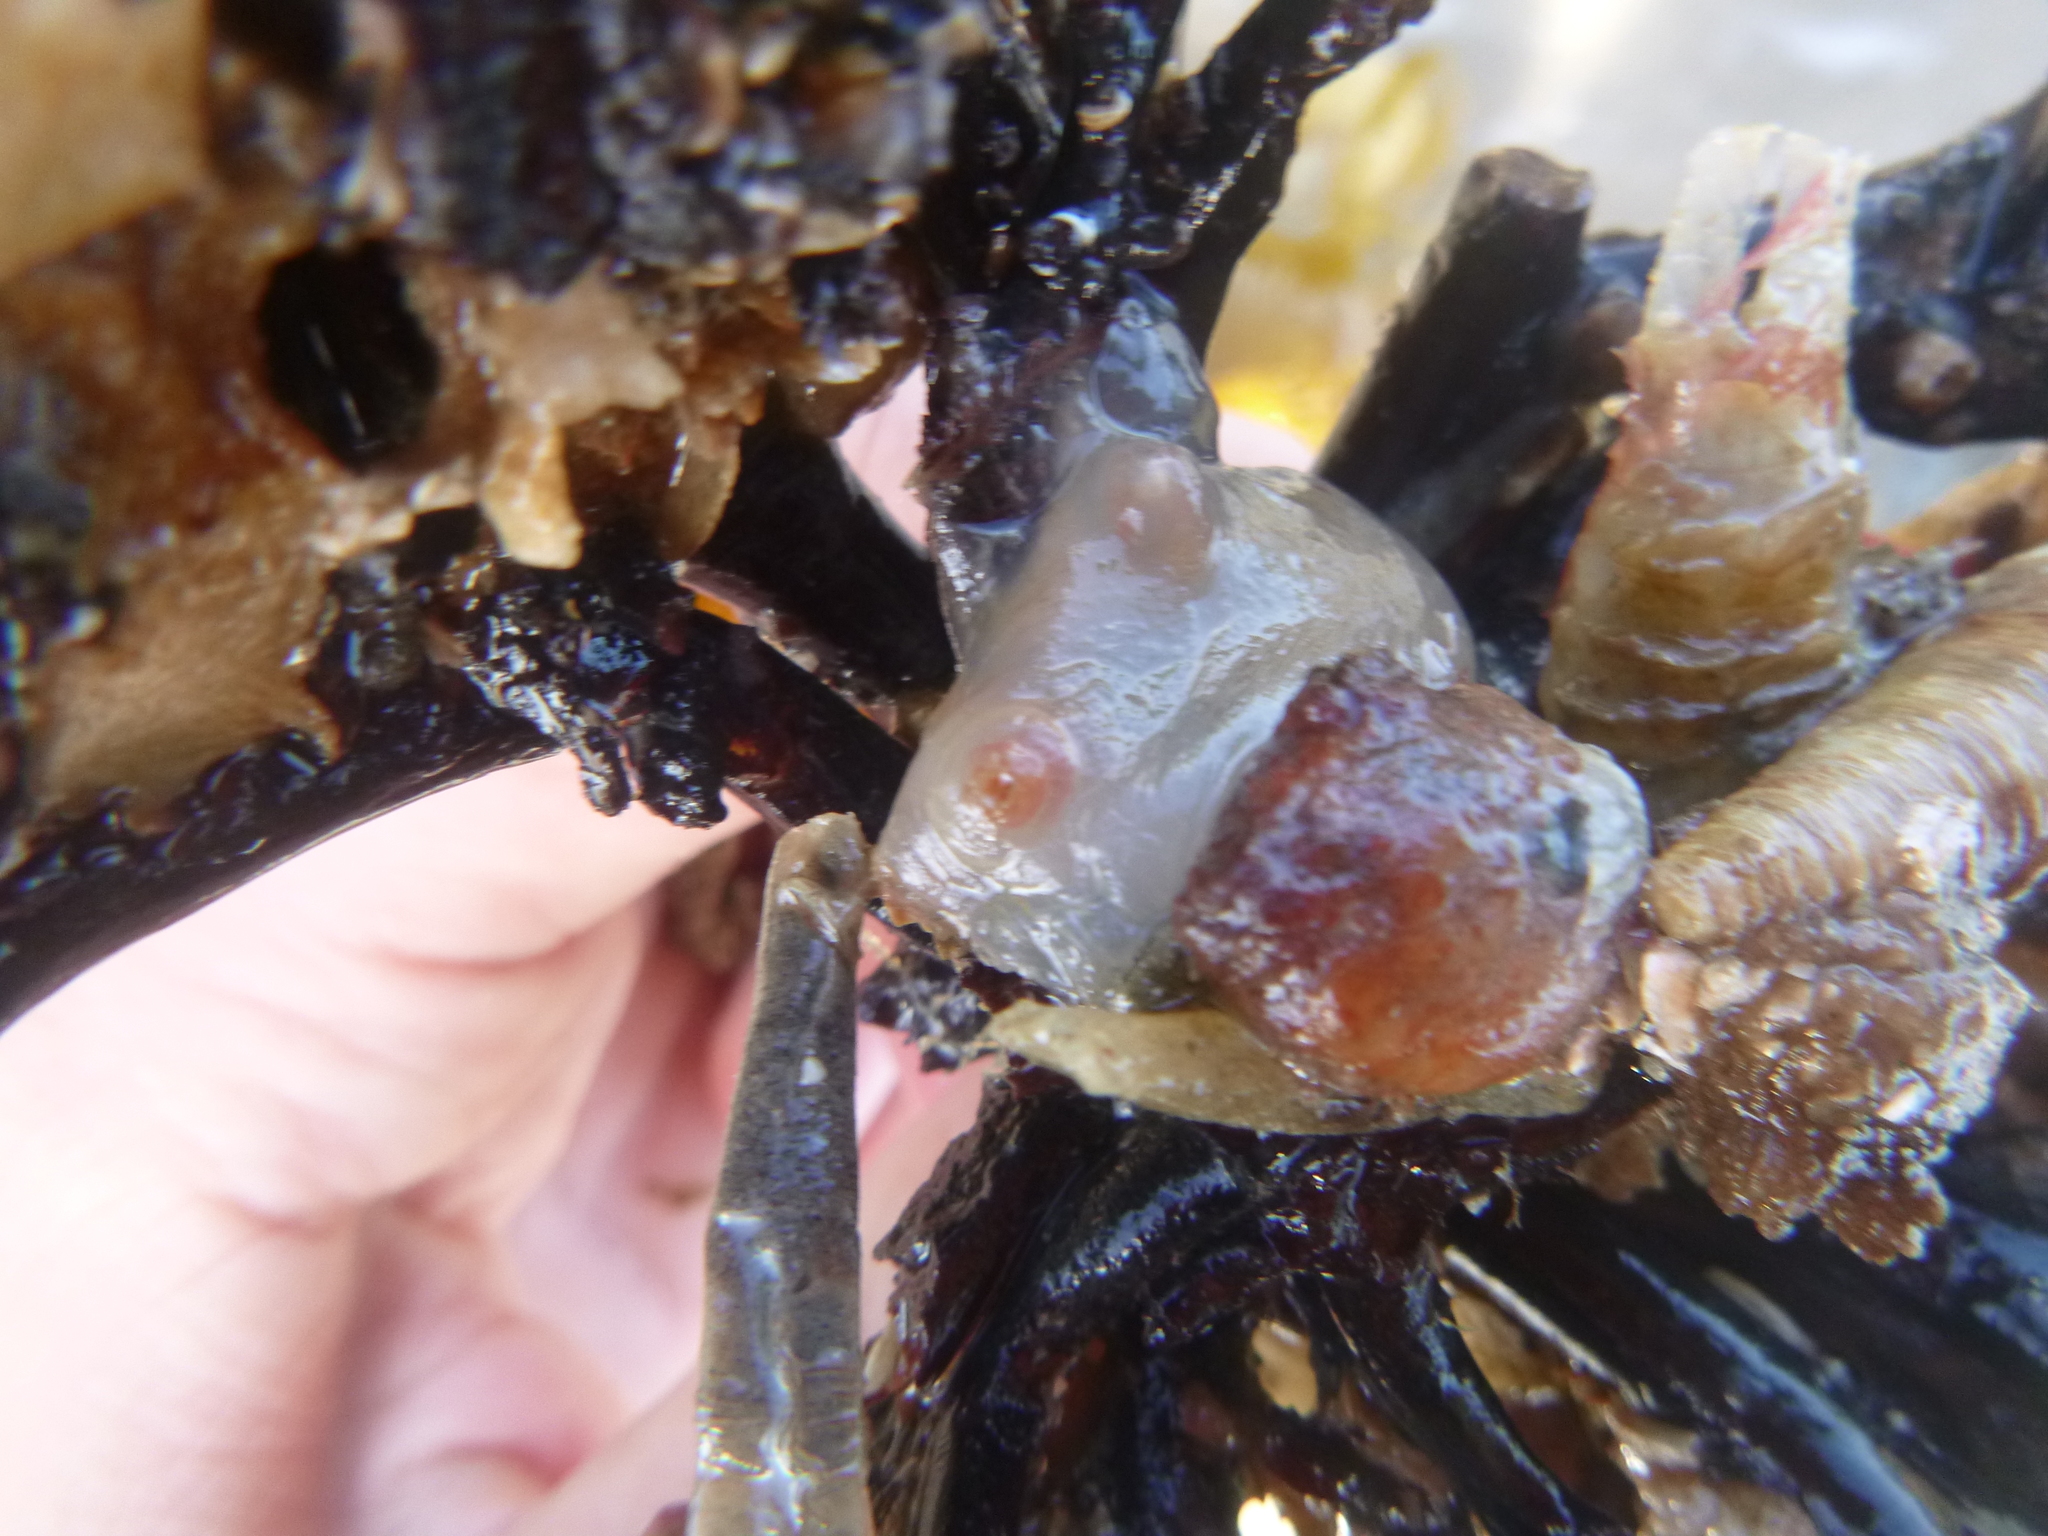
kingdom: Animalia
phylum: Chordata
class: Ascidiacea
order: Phlebobranchia
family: Corellidae
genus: Corella
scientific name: Corella eumyota
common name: Orange-tipped sea squirt
